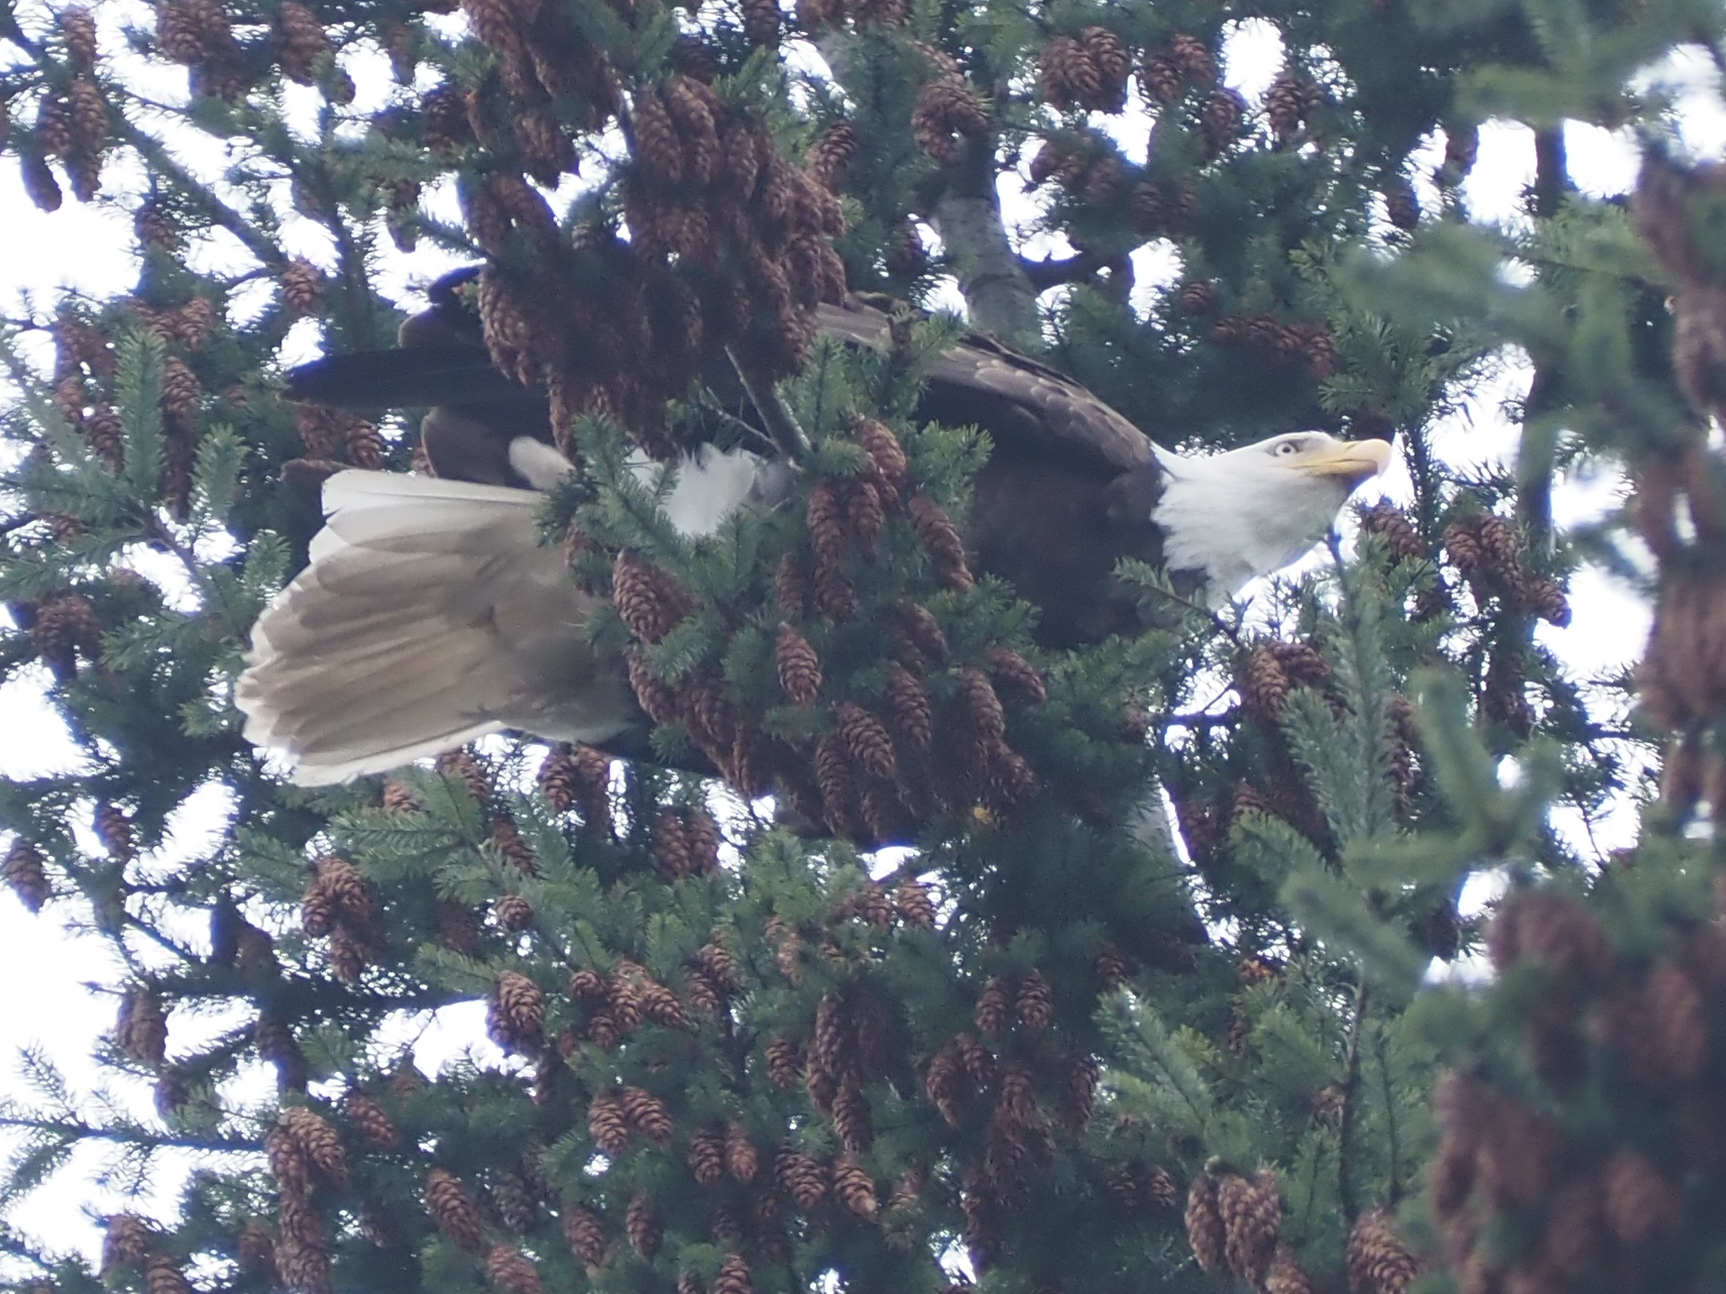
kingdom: Animalia
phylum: Chordata
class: Aves
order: Accipitriformes
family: Accipitridae
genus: Haliaeetus
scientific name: Haliaeetus leucocephalus
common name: Bald eagle
